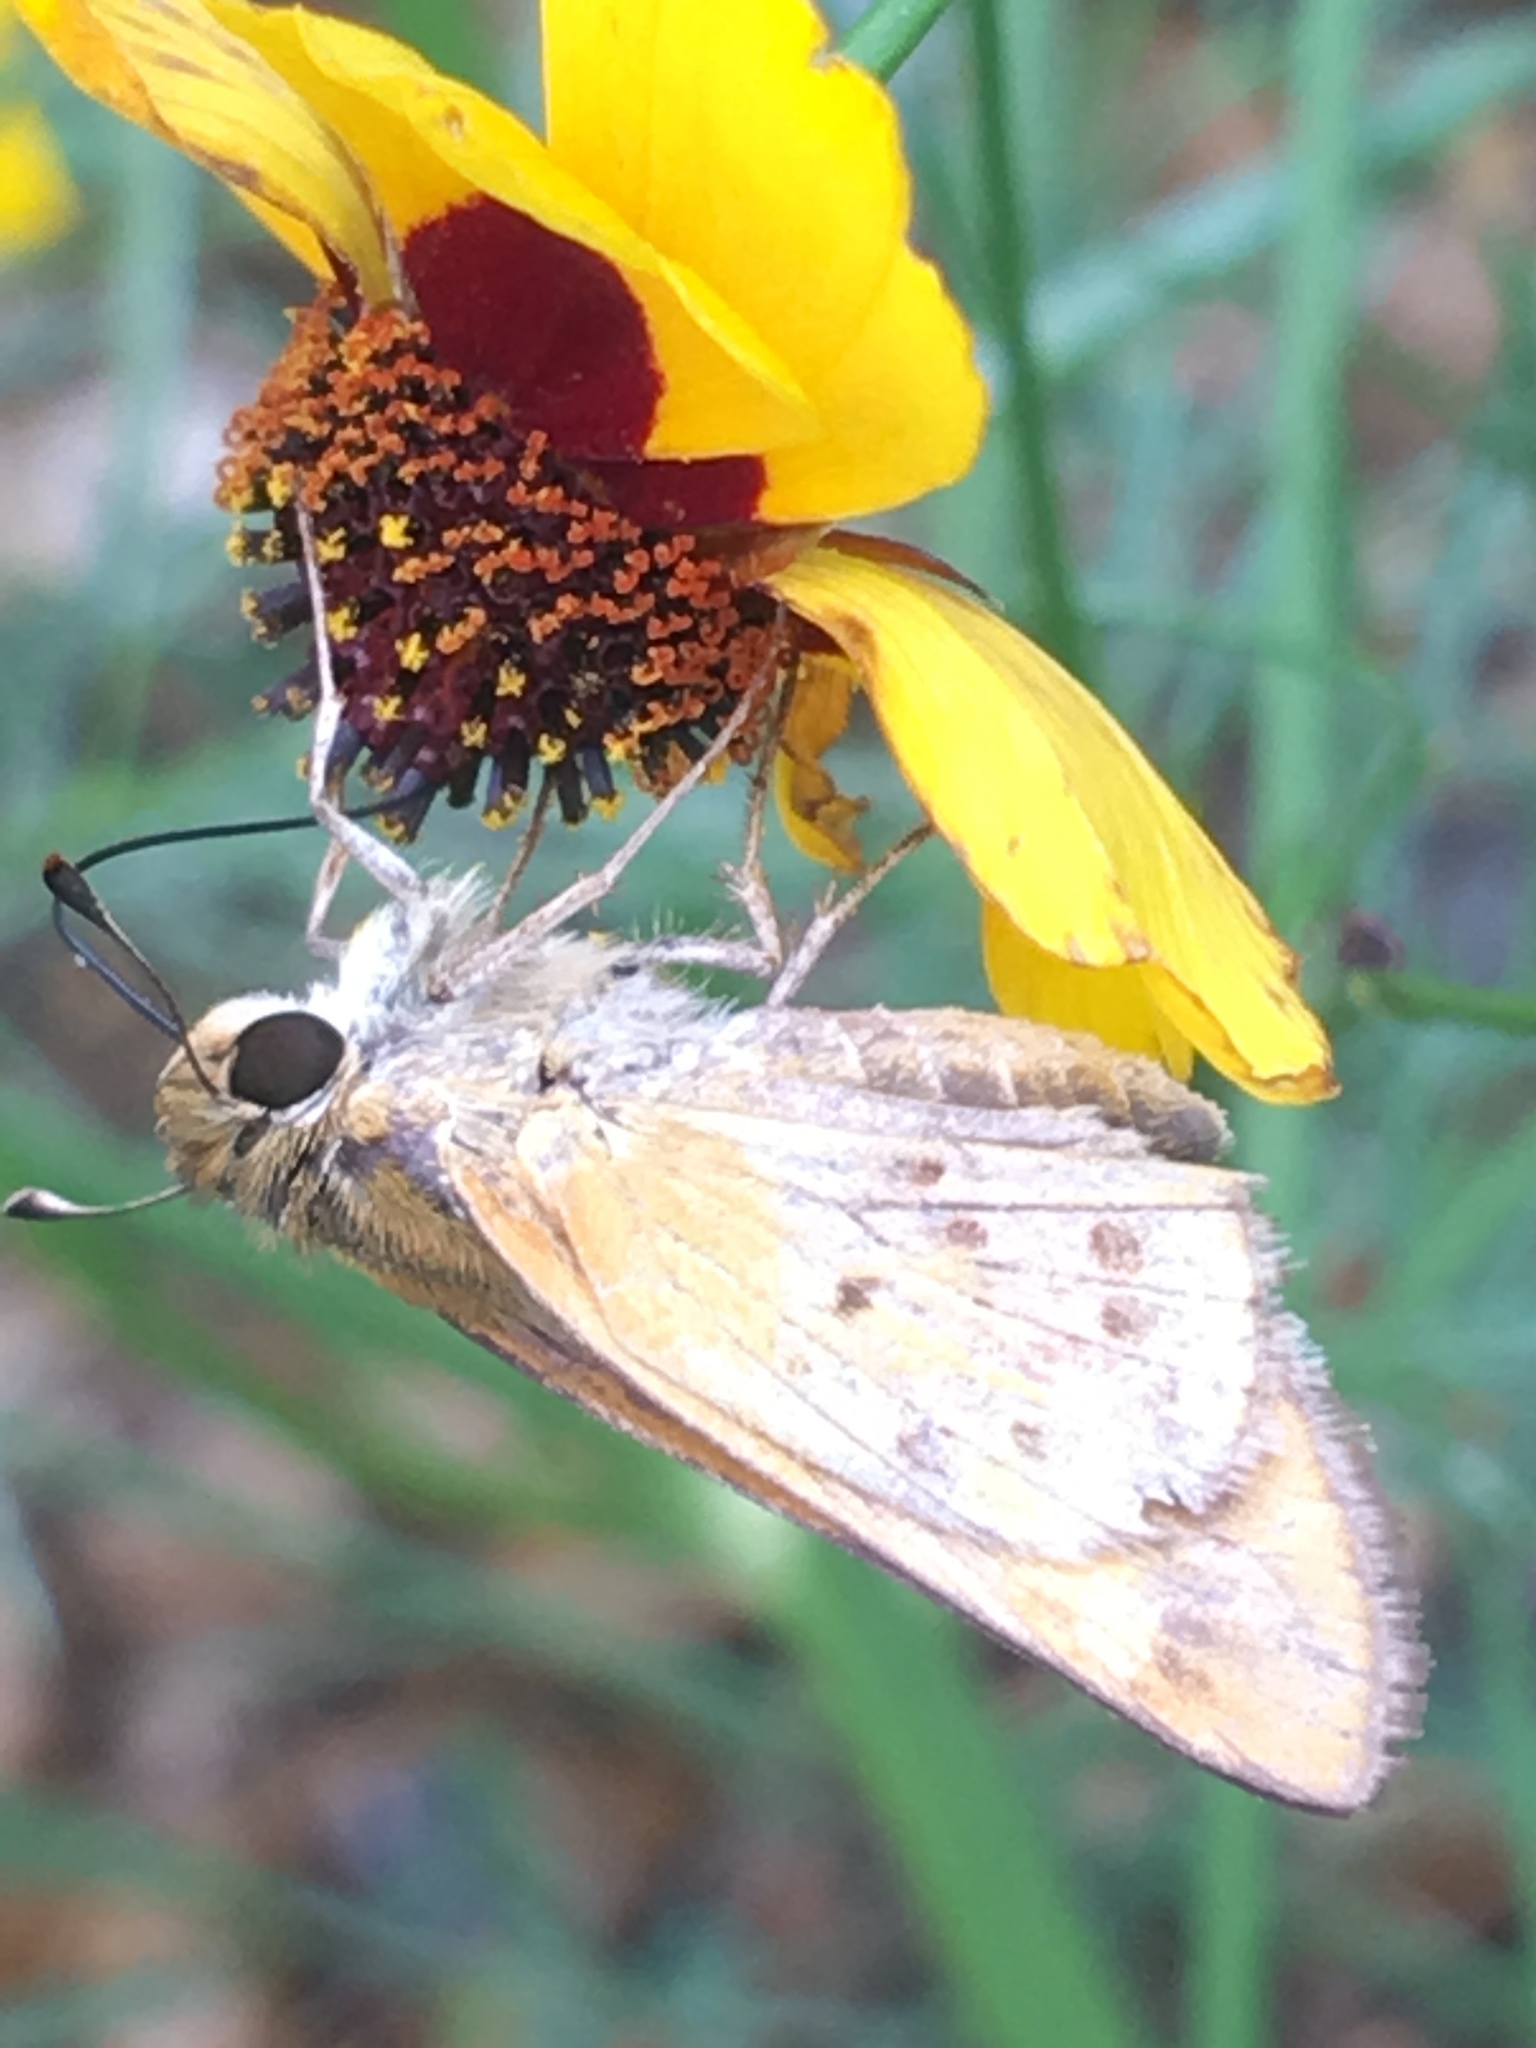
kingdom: Animalia
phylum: Arthropoda
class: Insecta
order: Lepidoptera
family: Hesperiidae
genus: Hylephila
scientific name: Hylephila phyleus
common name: Fiery skipper
